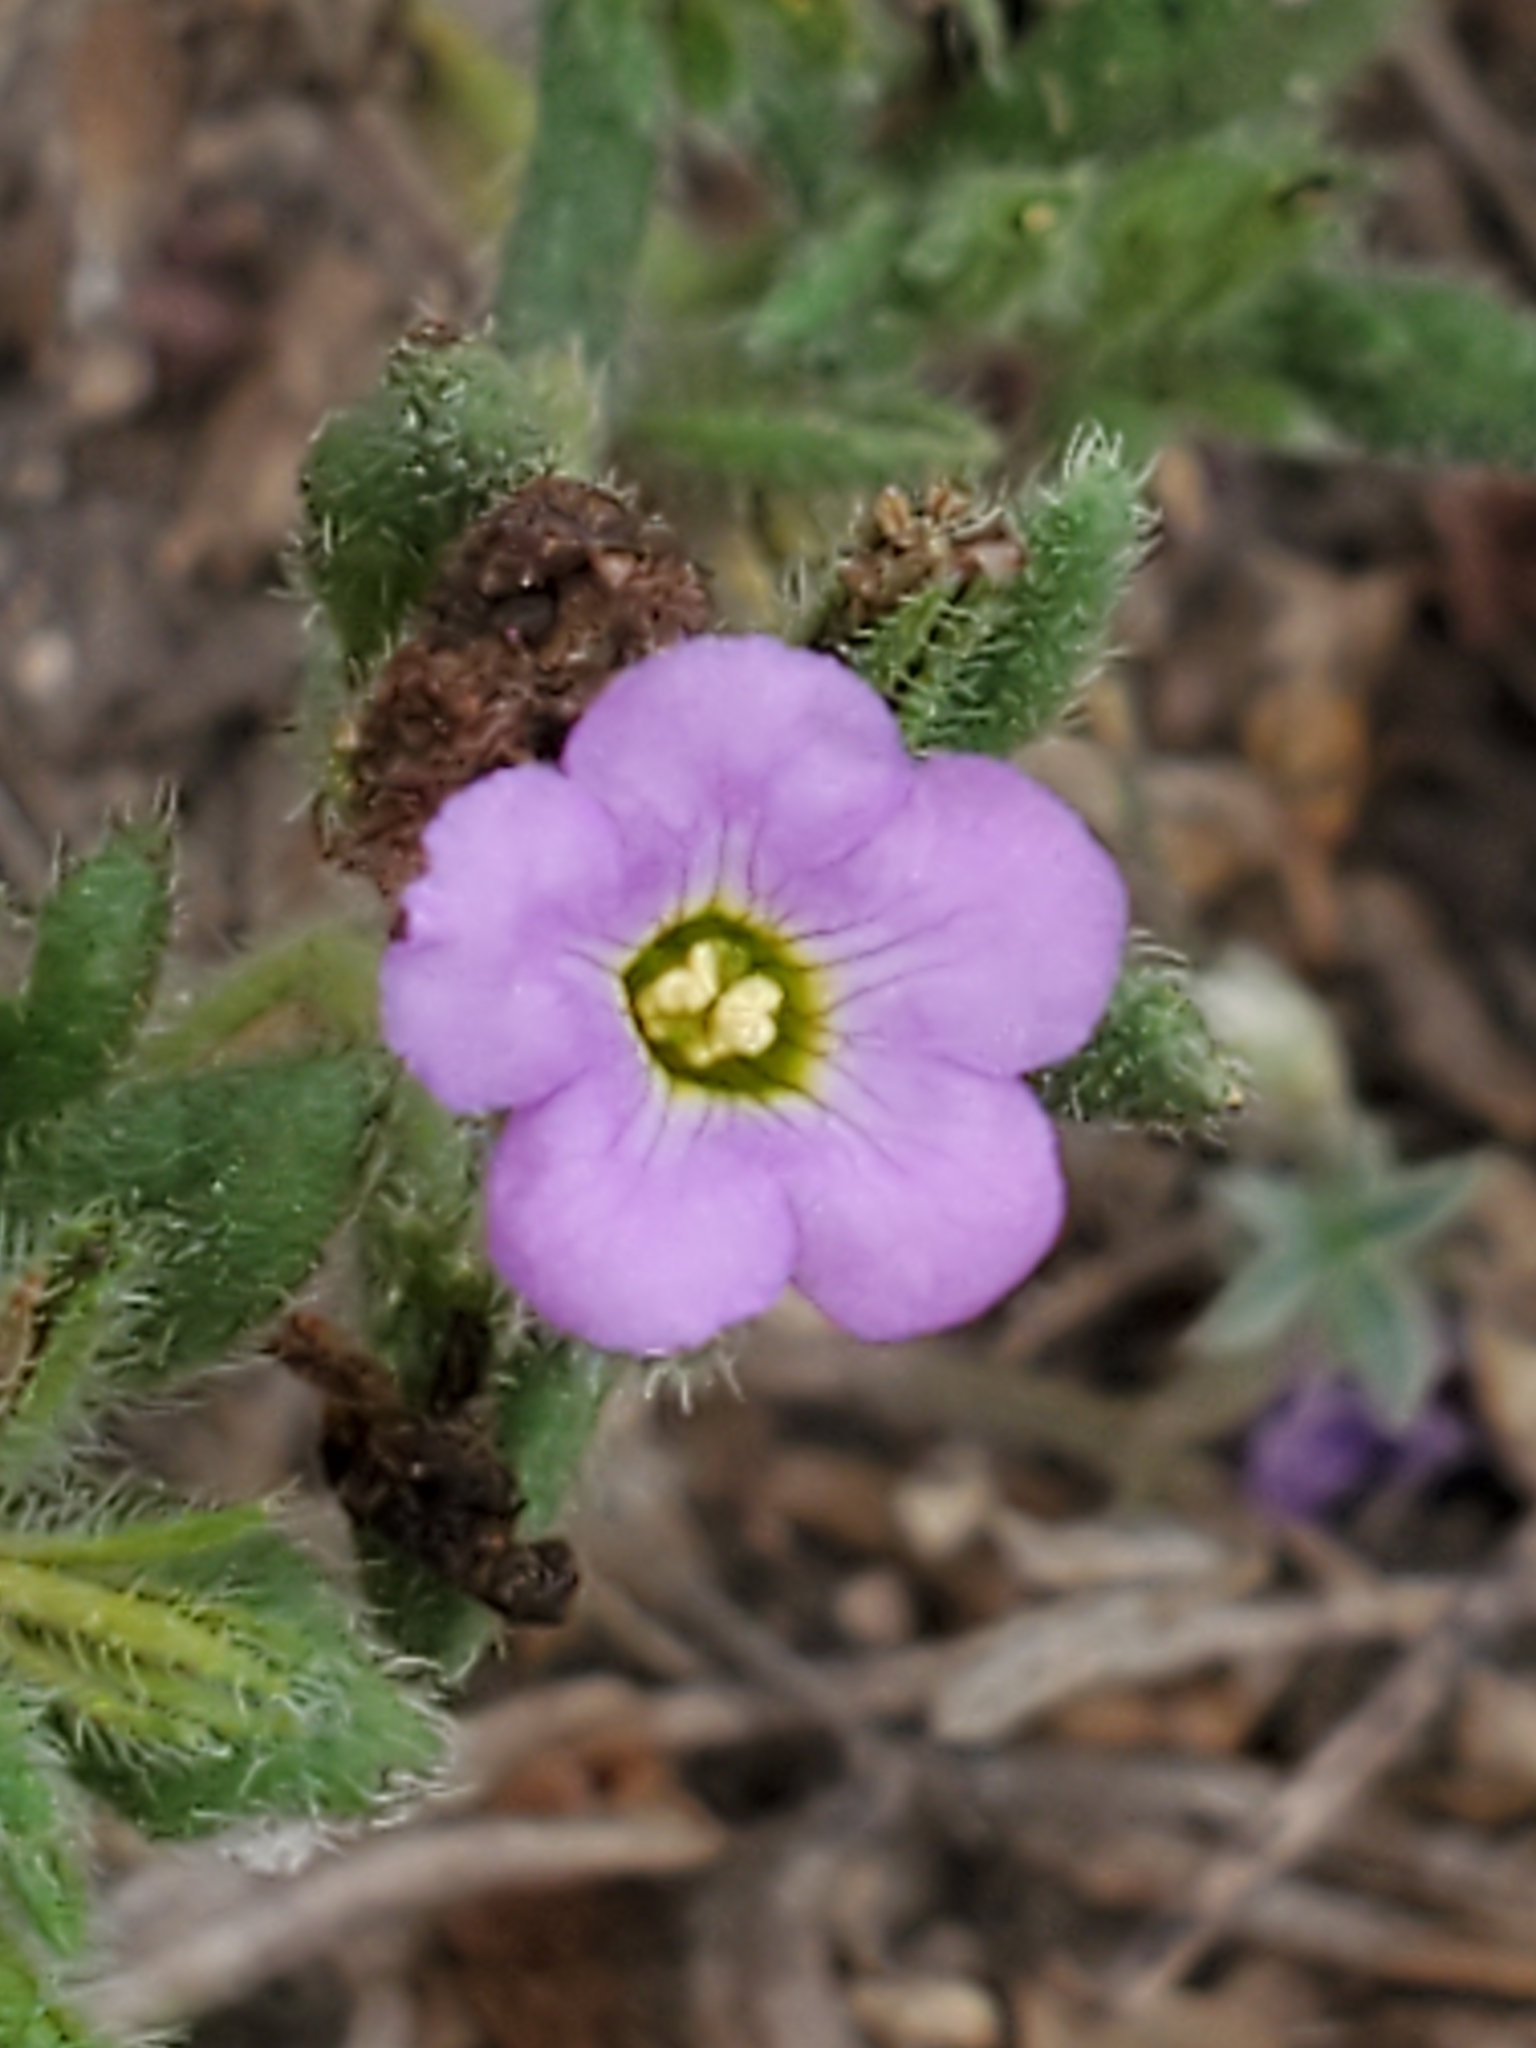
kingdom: Plantae
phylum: Tracheophyta
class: Magnoliopsida
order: Boraginales
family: Namaceae
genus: Nama
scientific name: Nama hispida
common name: Bristly nama
